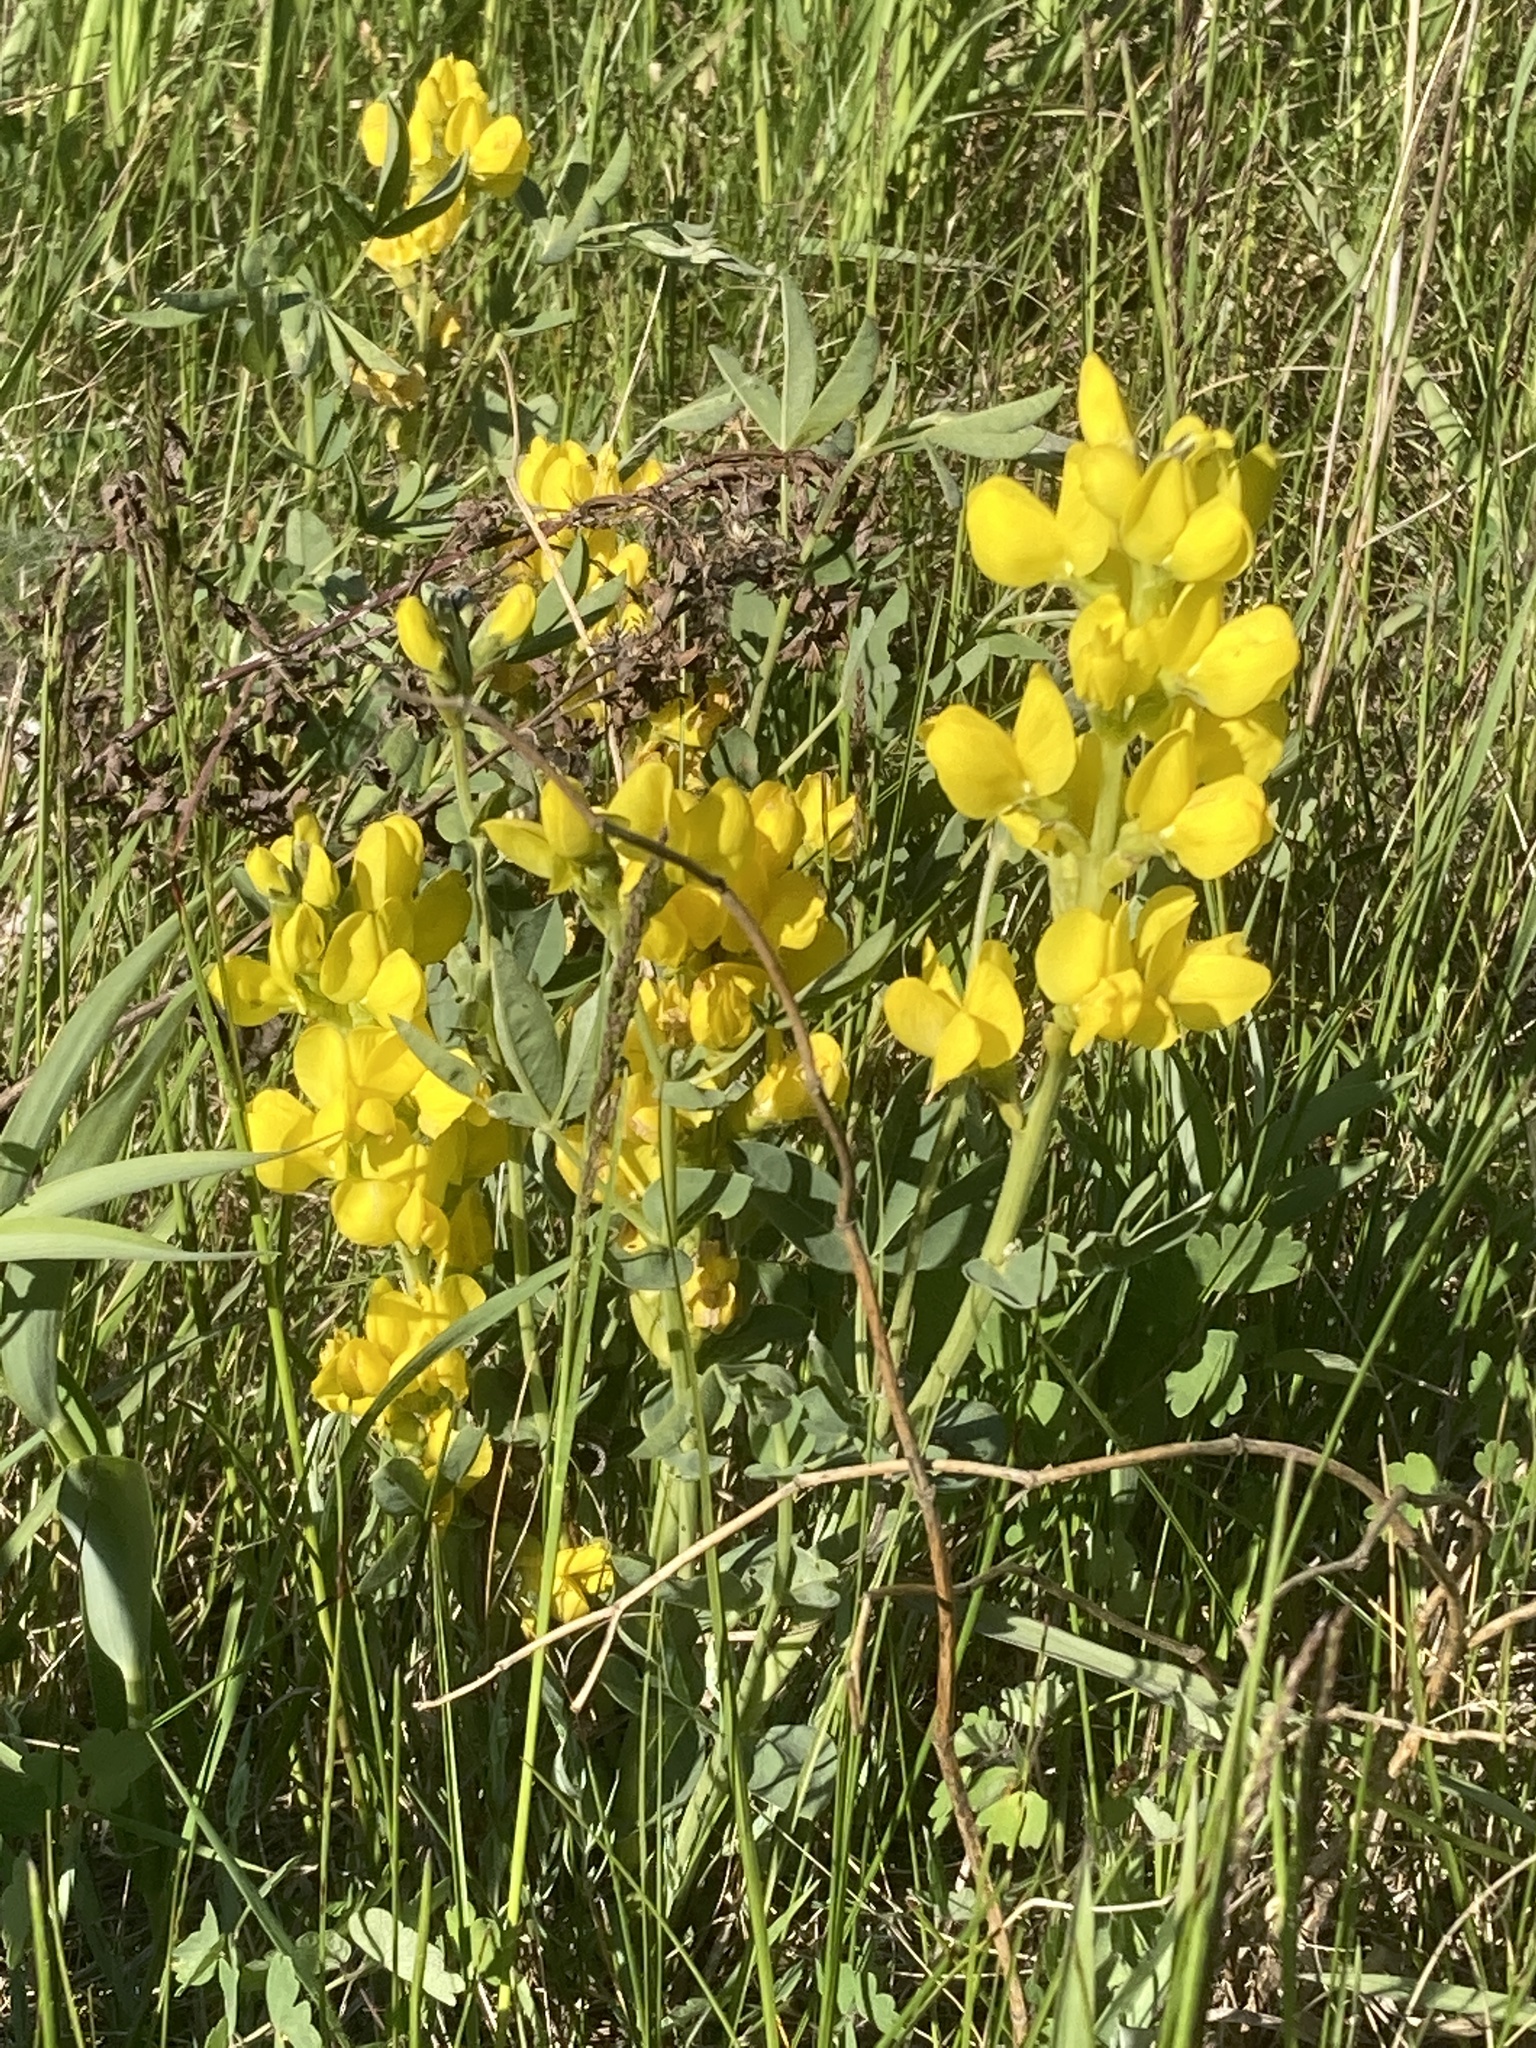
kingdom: Plantae
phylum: Tracheophyta
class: Magnoliopsida
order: Fabales
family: Fabaceae
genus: Thermopsis
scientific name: Thermopsis rhombifolia
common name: Circle-pod-pea
